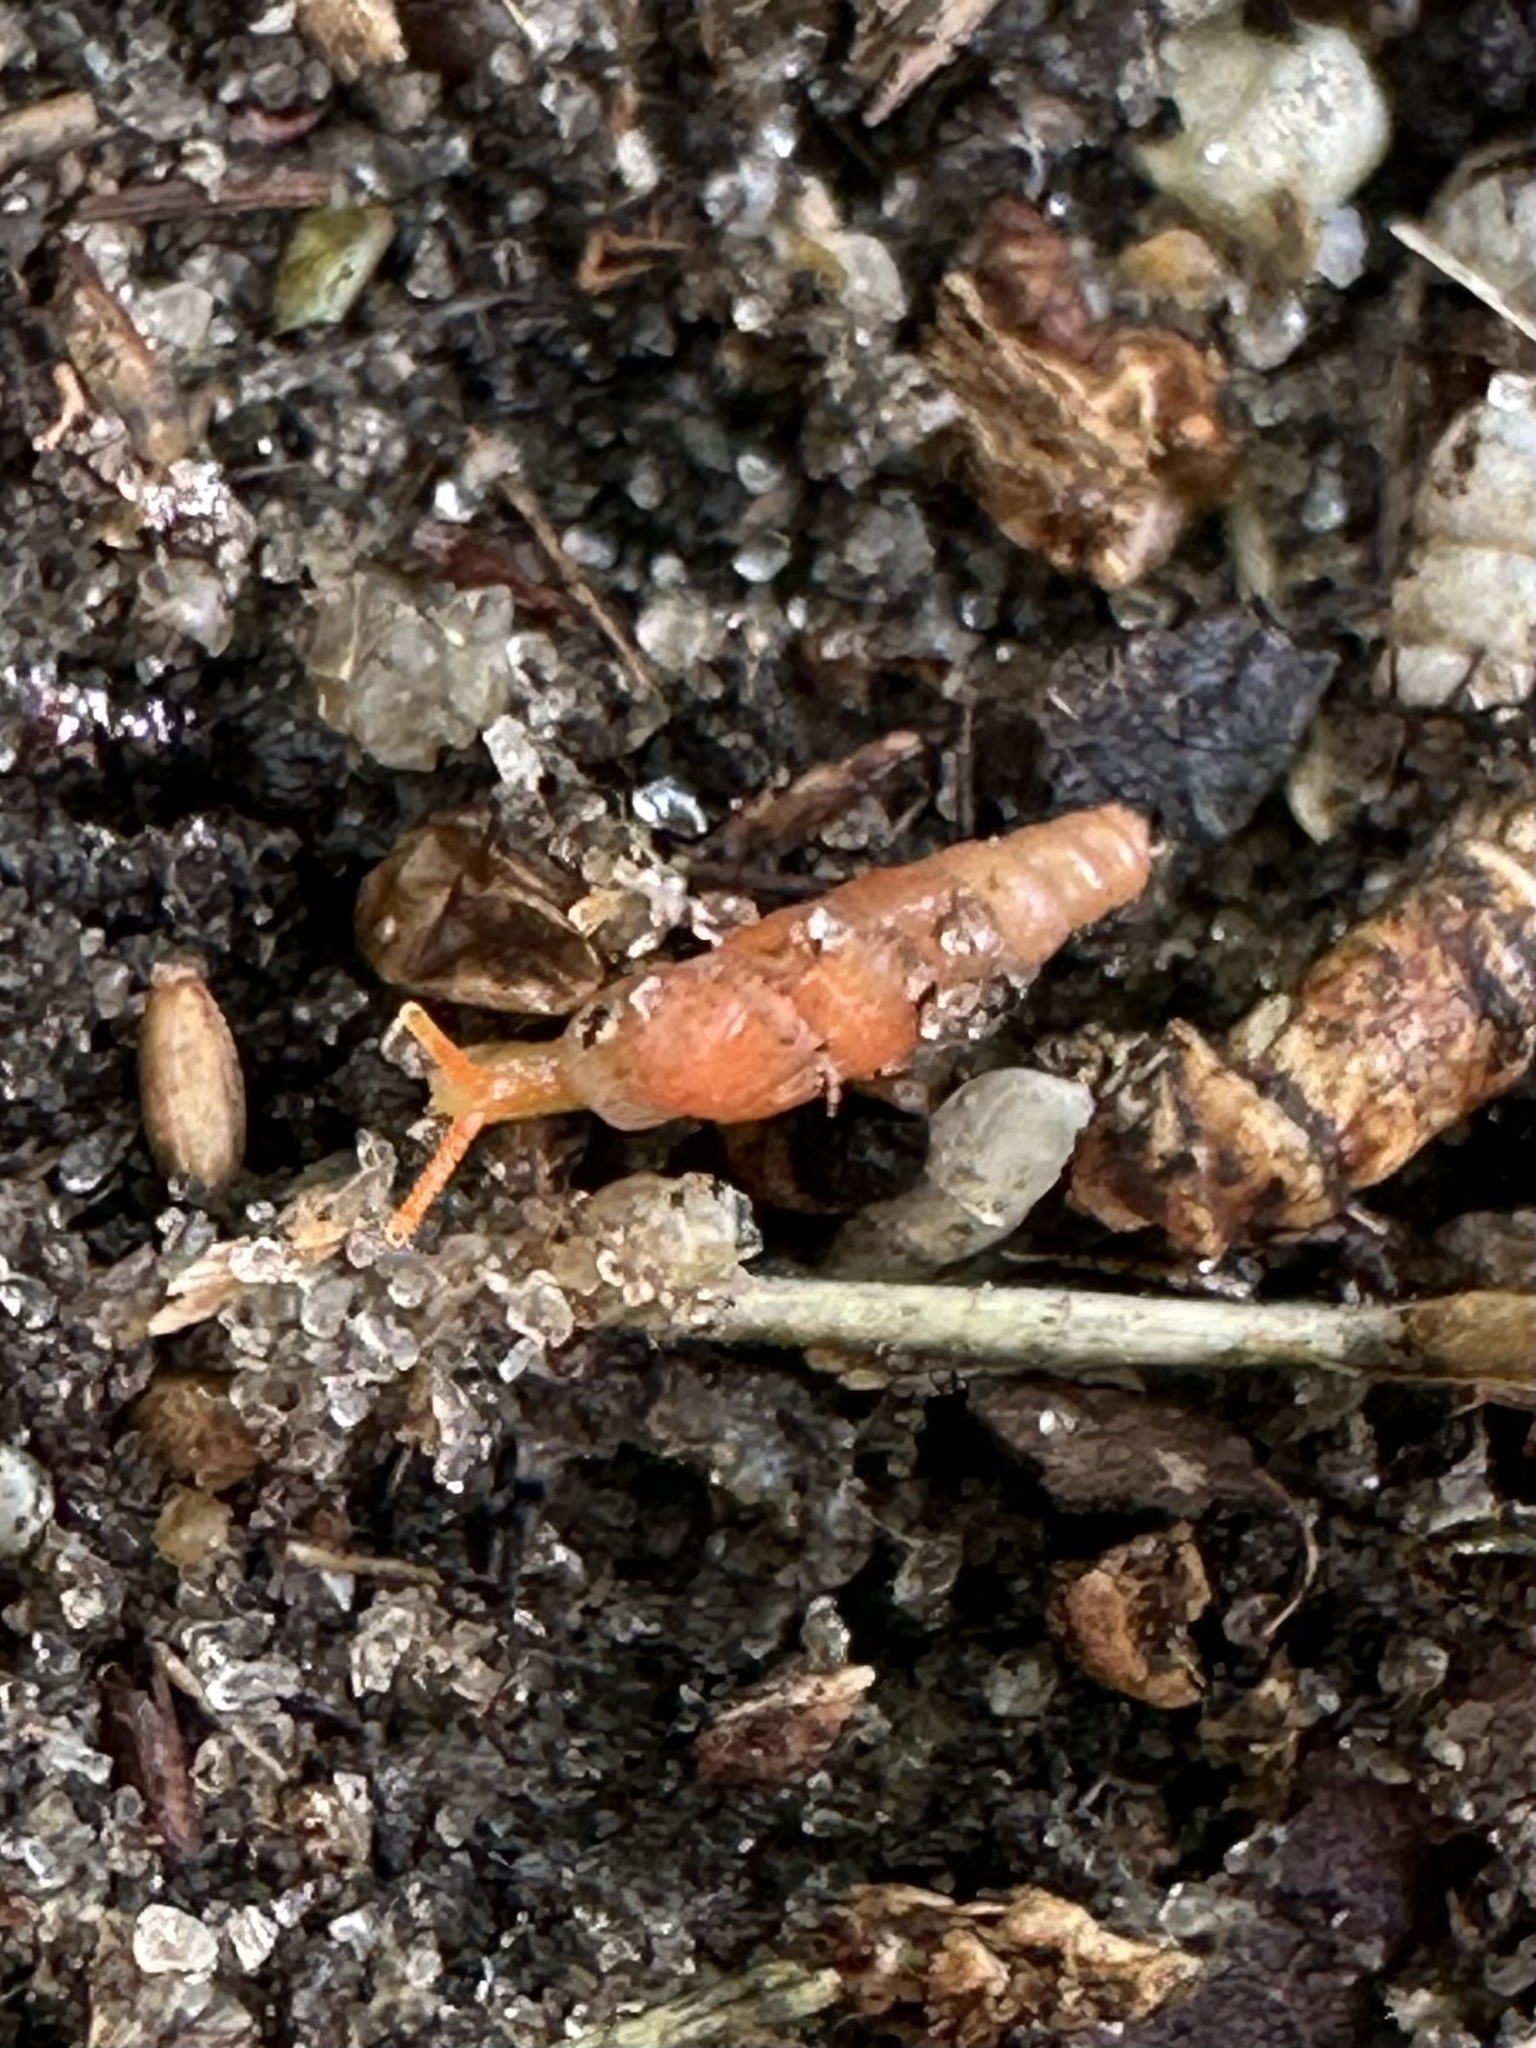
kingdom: Animalia
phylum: Mollusca
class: Gastropoda
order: Stylommatophora
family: Streptaxidae
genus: Gulella
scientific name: Gulella bicolor
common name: Snail
